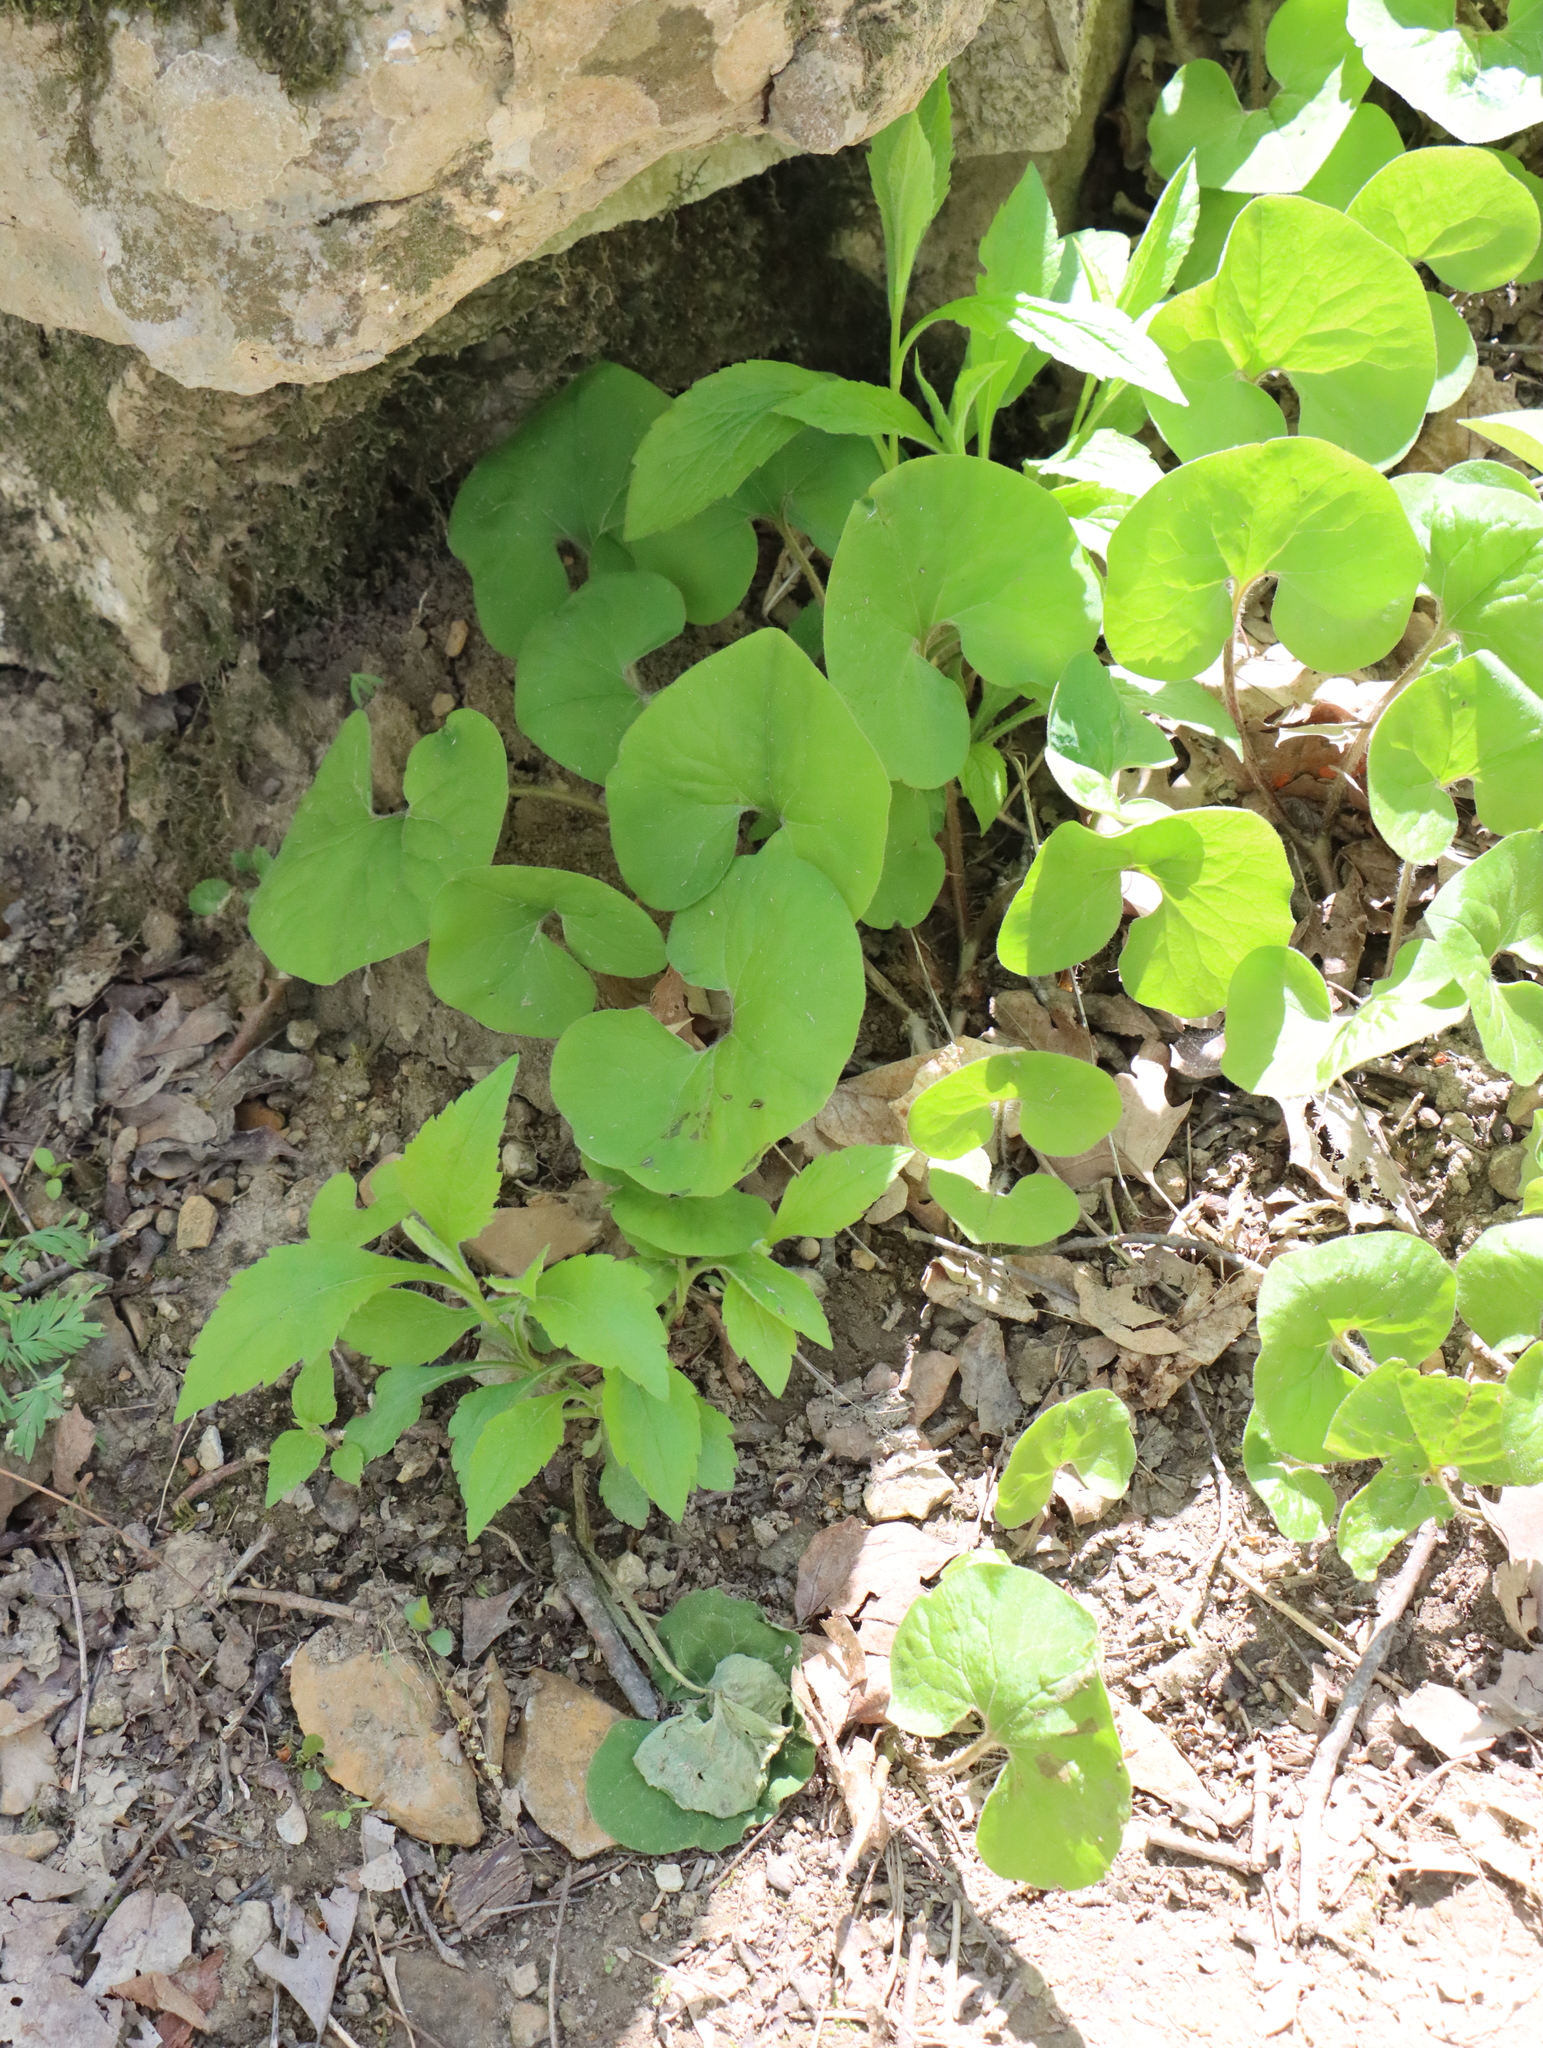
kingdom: Plantae
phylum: Tracheophyta
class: Magnoliopsida
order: Piperales
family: Aristolochiaceae
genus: Asarum
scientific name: Asarum canadense
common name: Wild ginger
